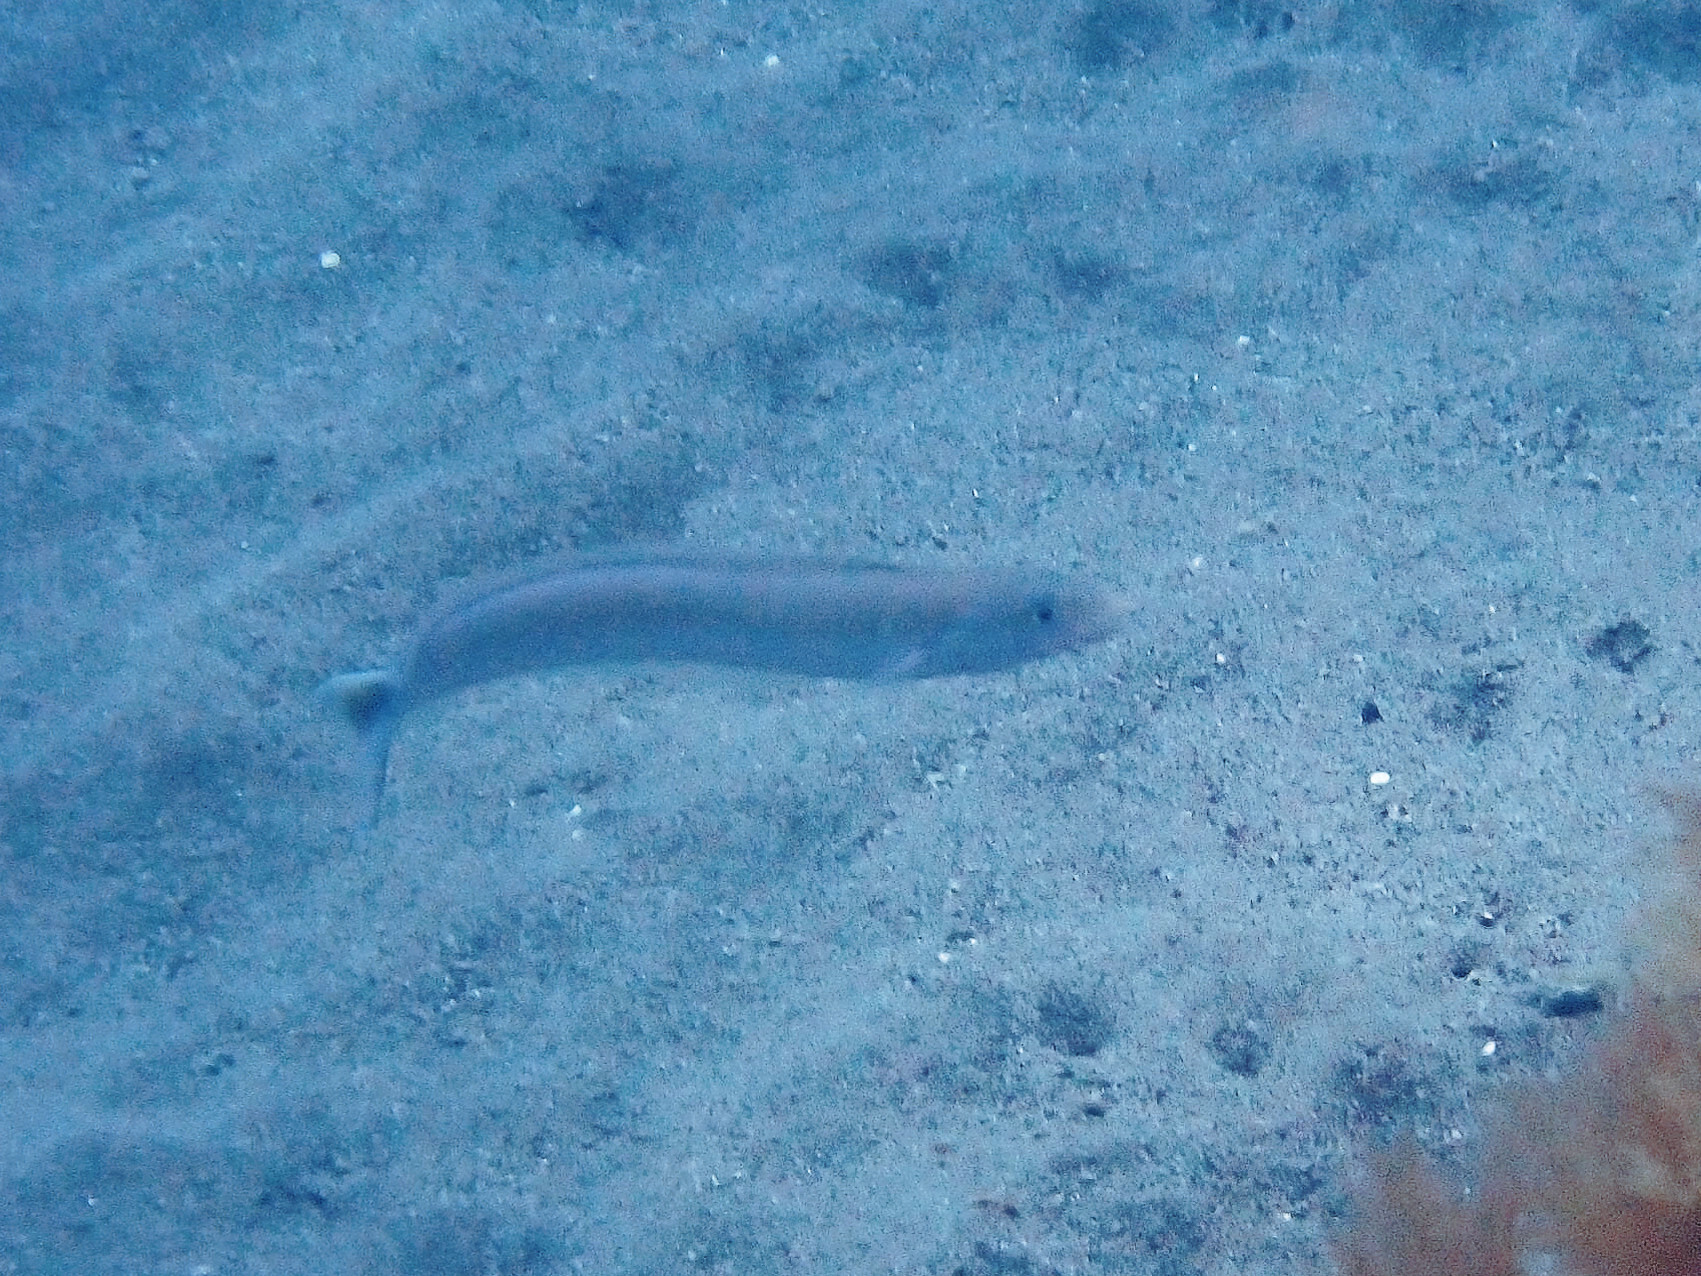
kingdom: Animalia
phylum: Chordata
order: Perciformes
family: Malacanthidae
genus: Malacanthus
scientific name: Malacanthus plumieri
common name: Sand tilefish
